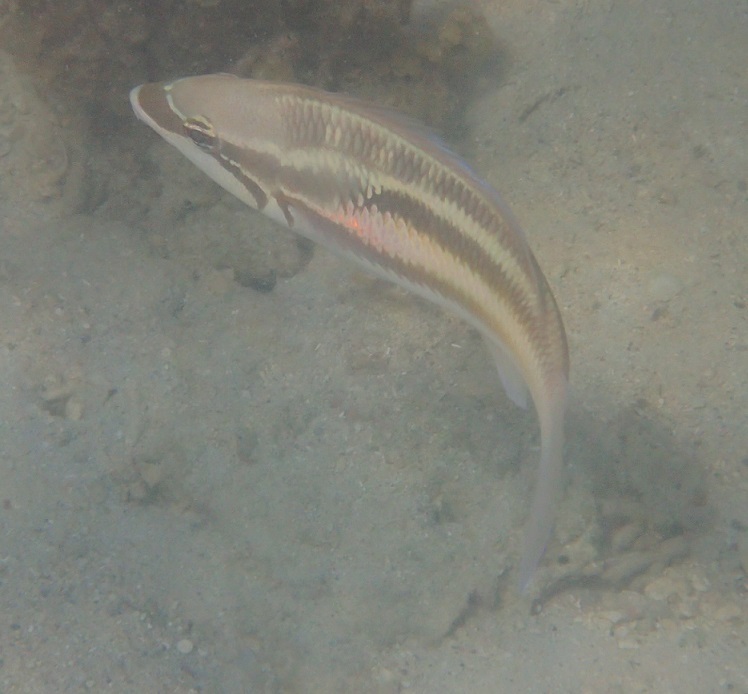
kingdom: Animalia
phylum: Chordata
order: Perciformes
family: Nemipteridae
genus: Pentapodus
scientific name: Pentapodus trivittatus
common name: Three-striped whiptail
